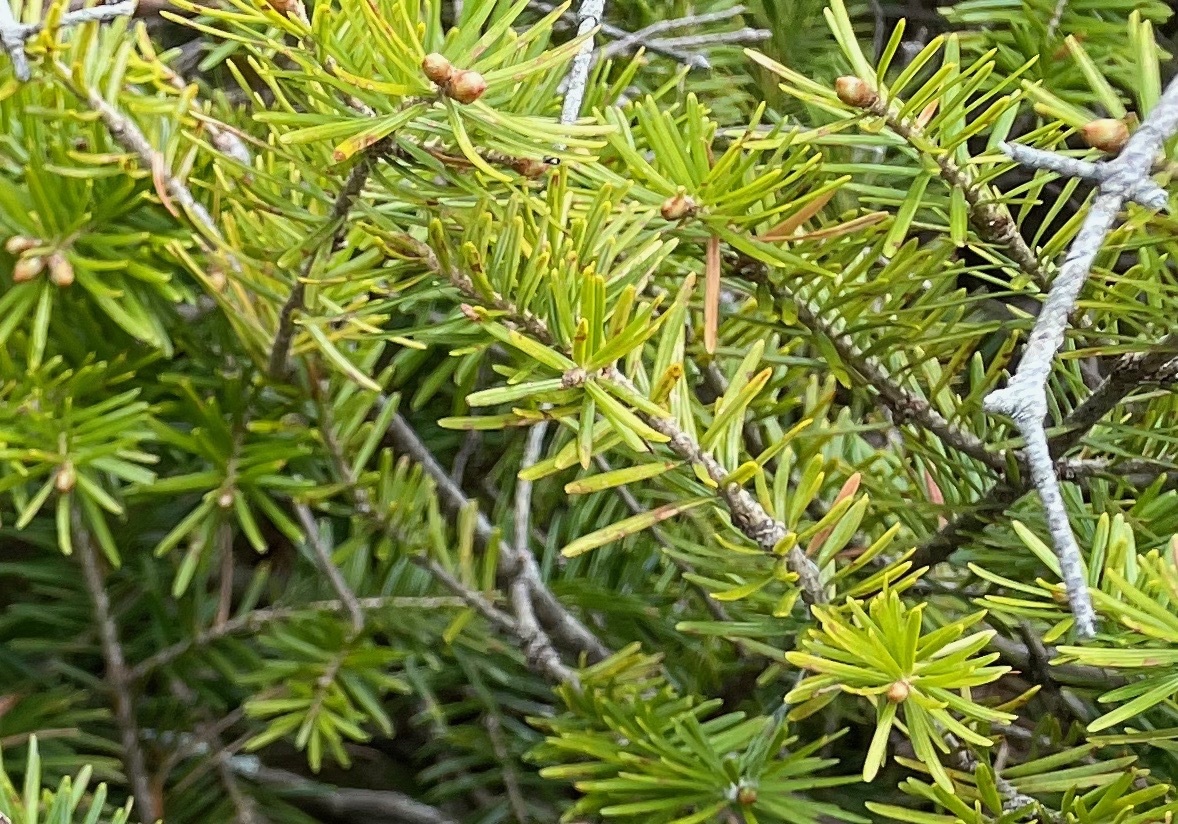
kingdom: Plantae
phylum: Tracheophyta
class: Pinopsida
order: Pinales
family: Pinaceae
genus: Abies
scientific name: Abies balsamea
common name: Balsam fir
